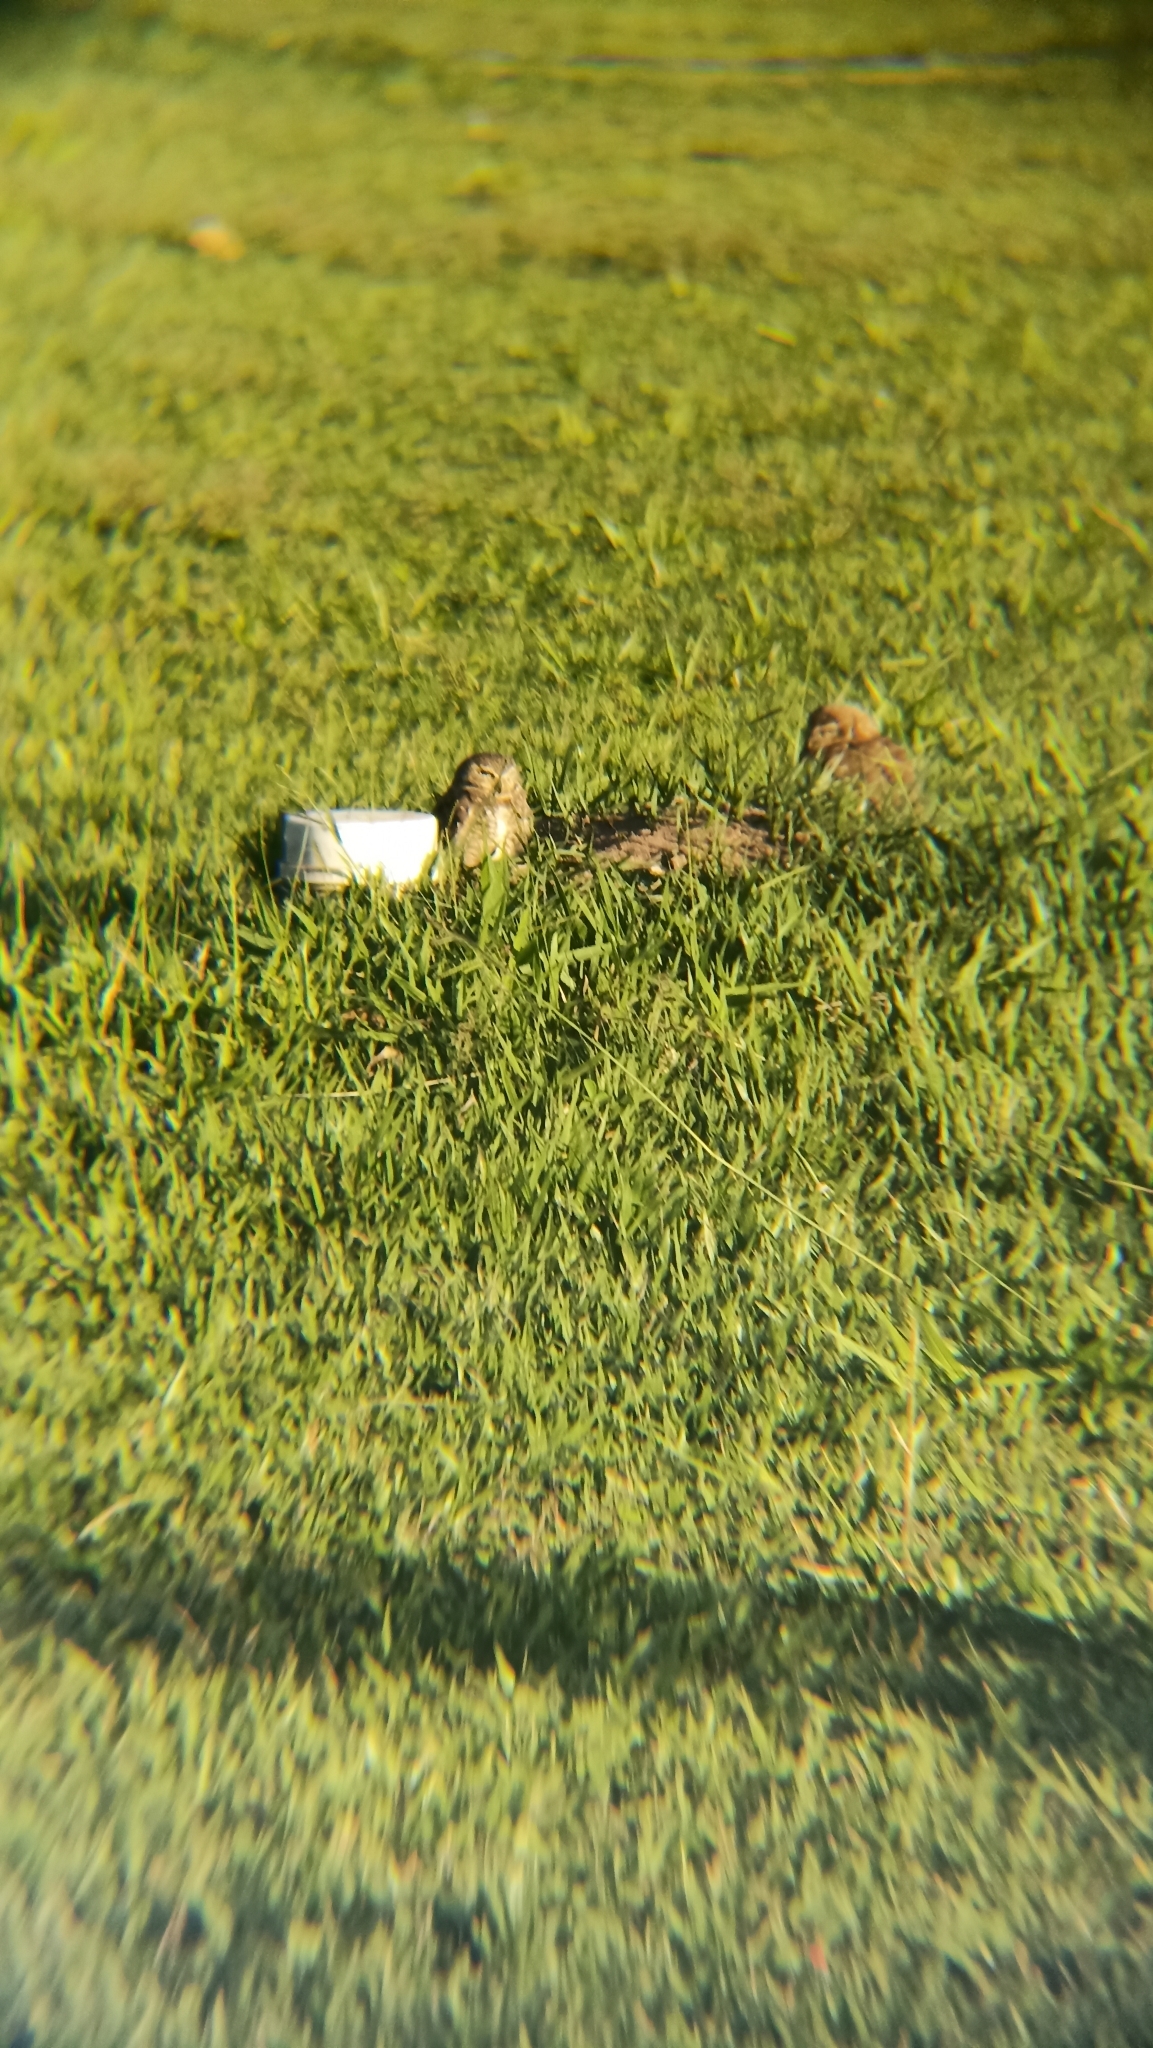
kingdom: Animalia
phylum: Chordata
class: Aves
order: Strigiformes
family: Strigidae
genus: Athene
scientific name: Athene cunicularia
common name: Burrowing owl
